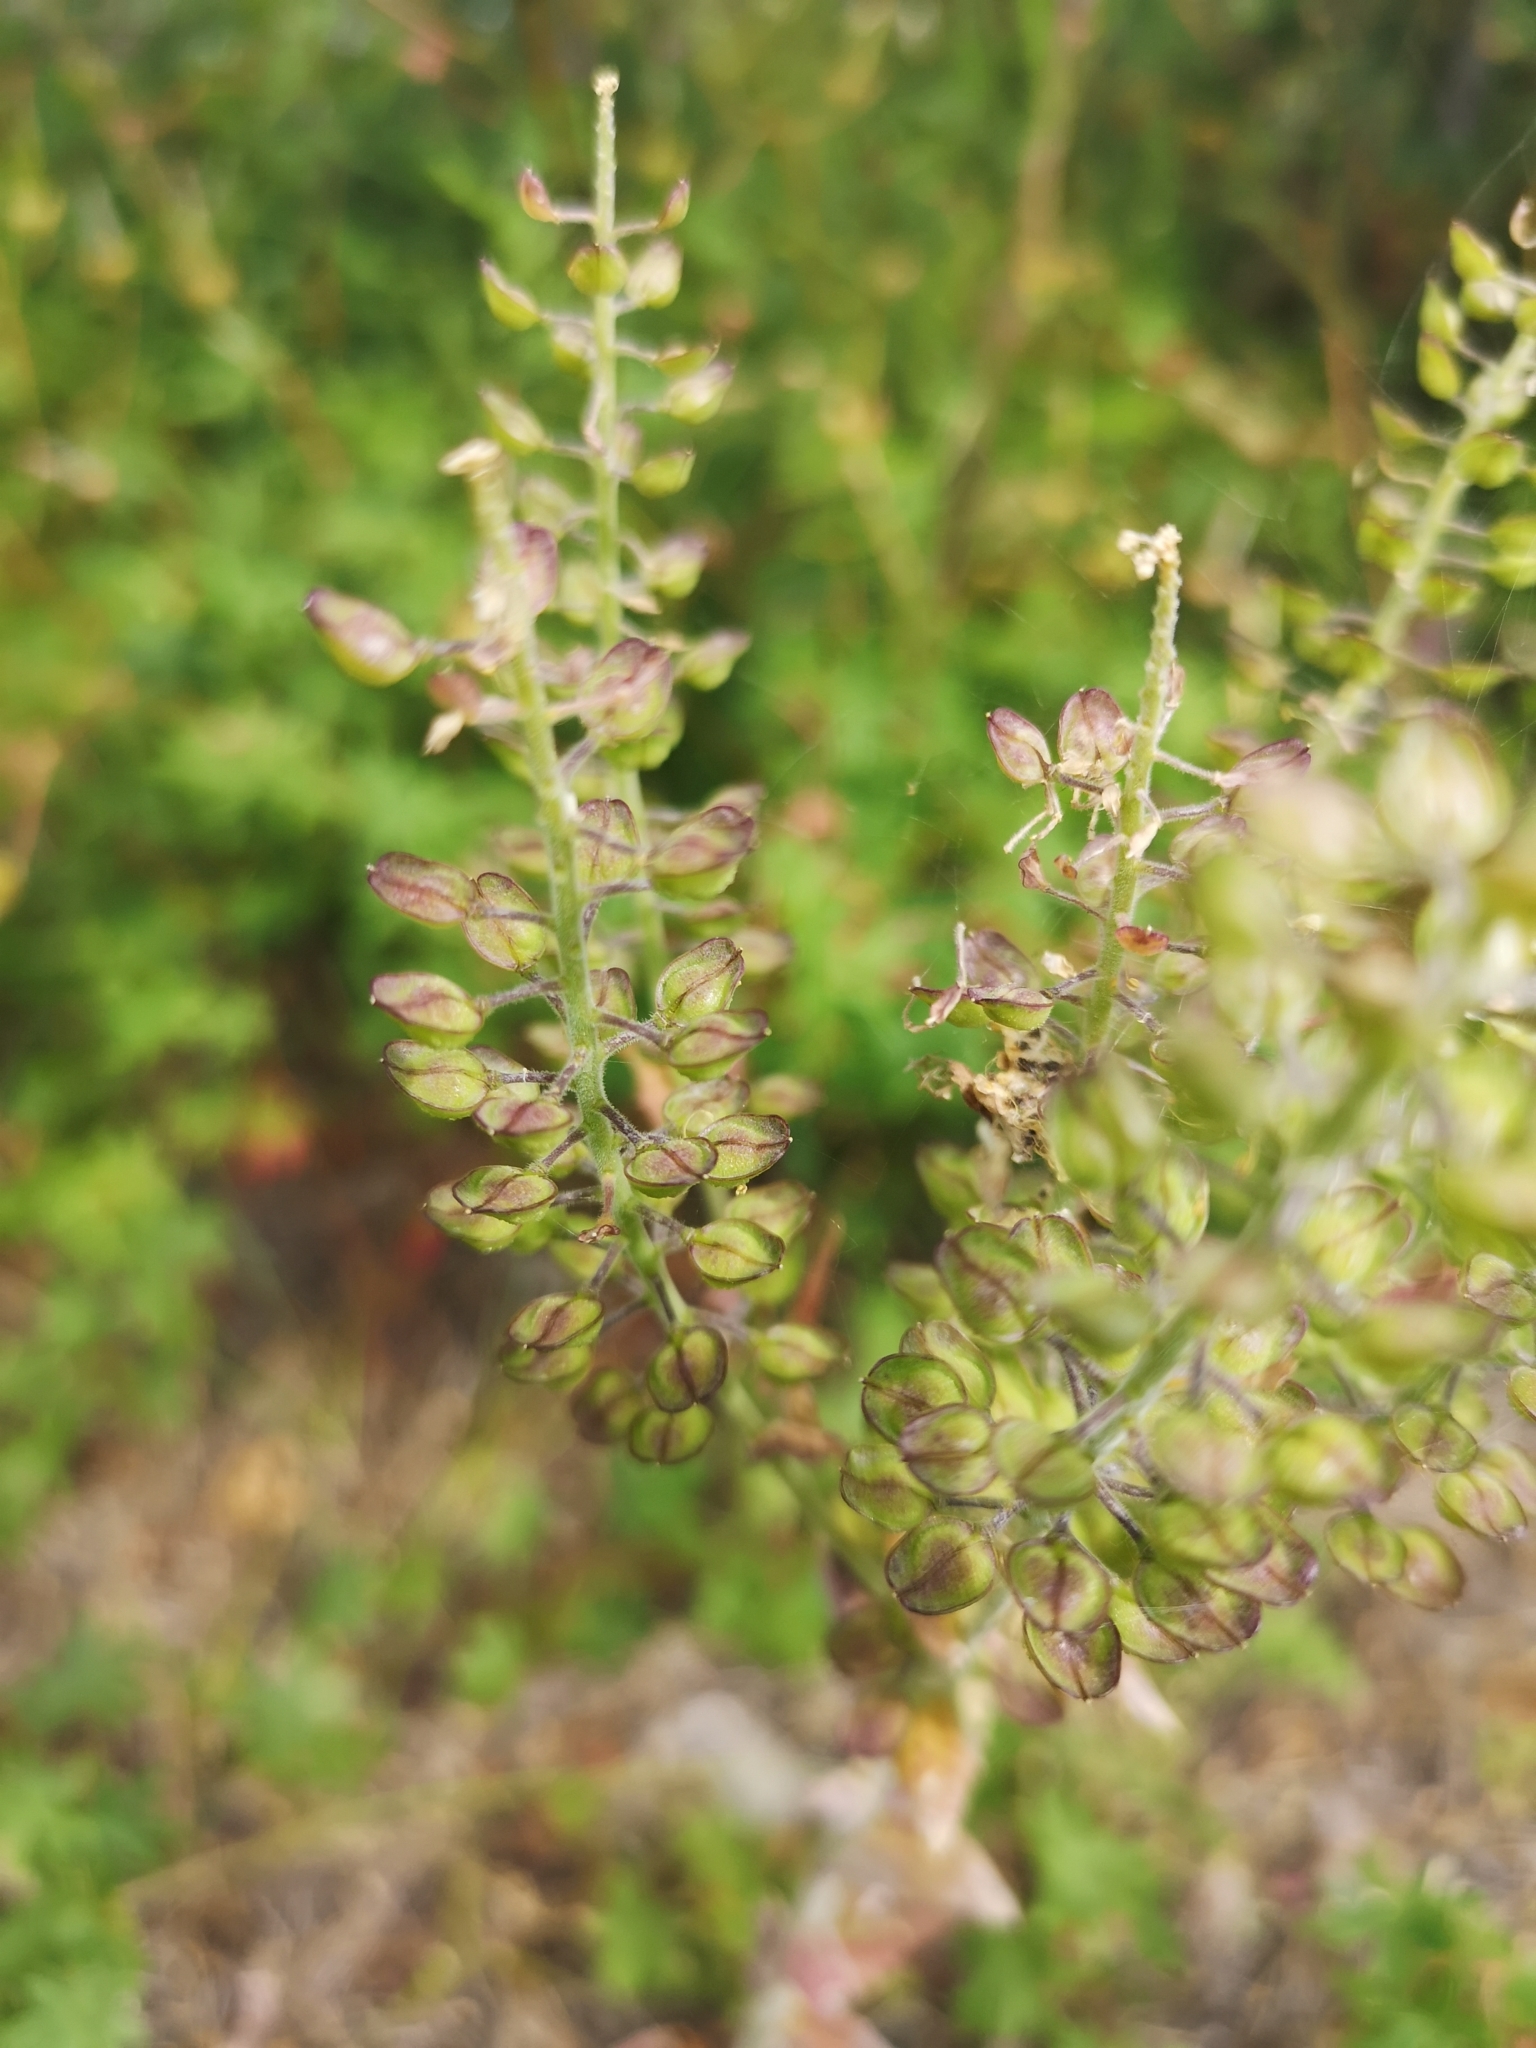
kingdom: Plantae
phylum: Tracheophyta
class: Magnoliopsida
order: Brassicales
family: Brassicaceae
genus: Lepidium
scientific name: Lepidium campestre
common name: Field pepperwort
